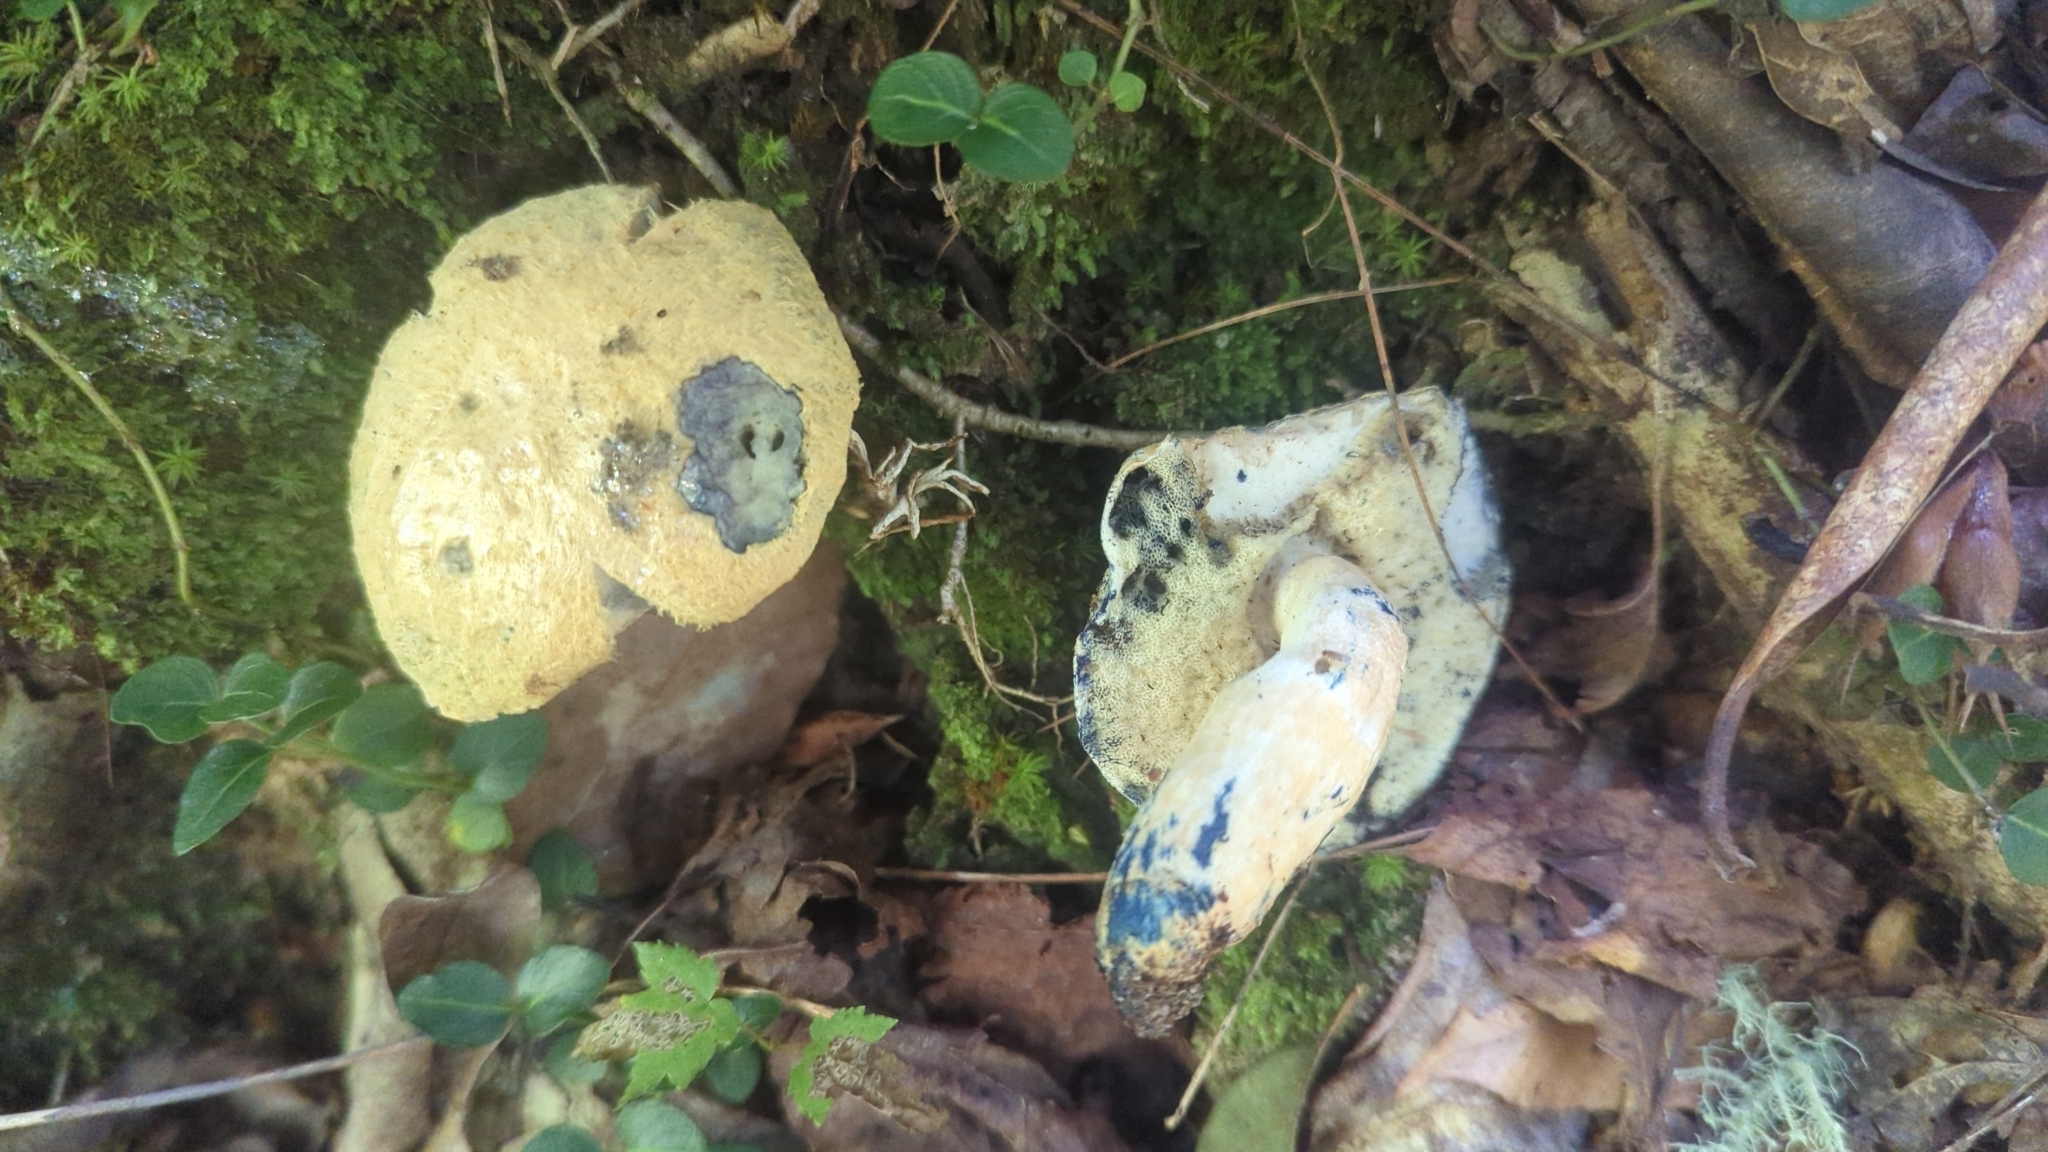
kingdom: Fungi
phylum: Basidiomycota
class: Agaricomycetes
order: Boletales
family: Gyroporaceae
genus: Gyroporus
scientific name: Gyroporus cyanescens
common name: Cornflower bolete
